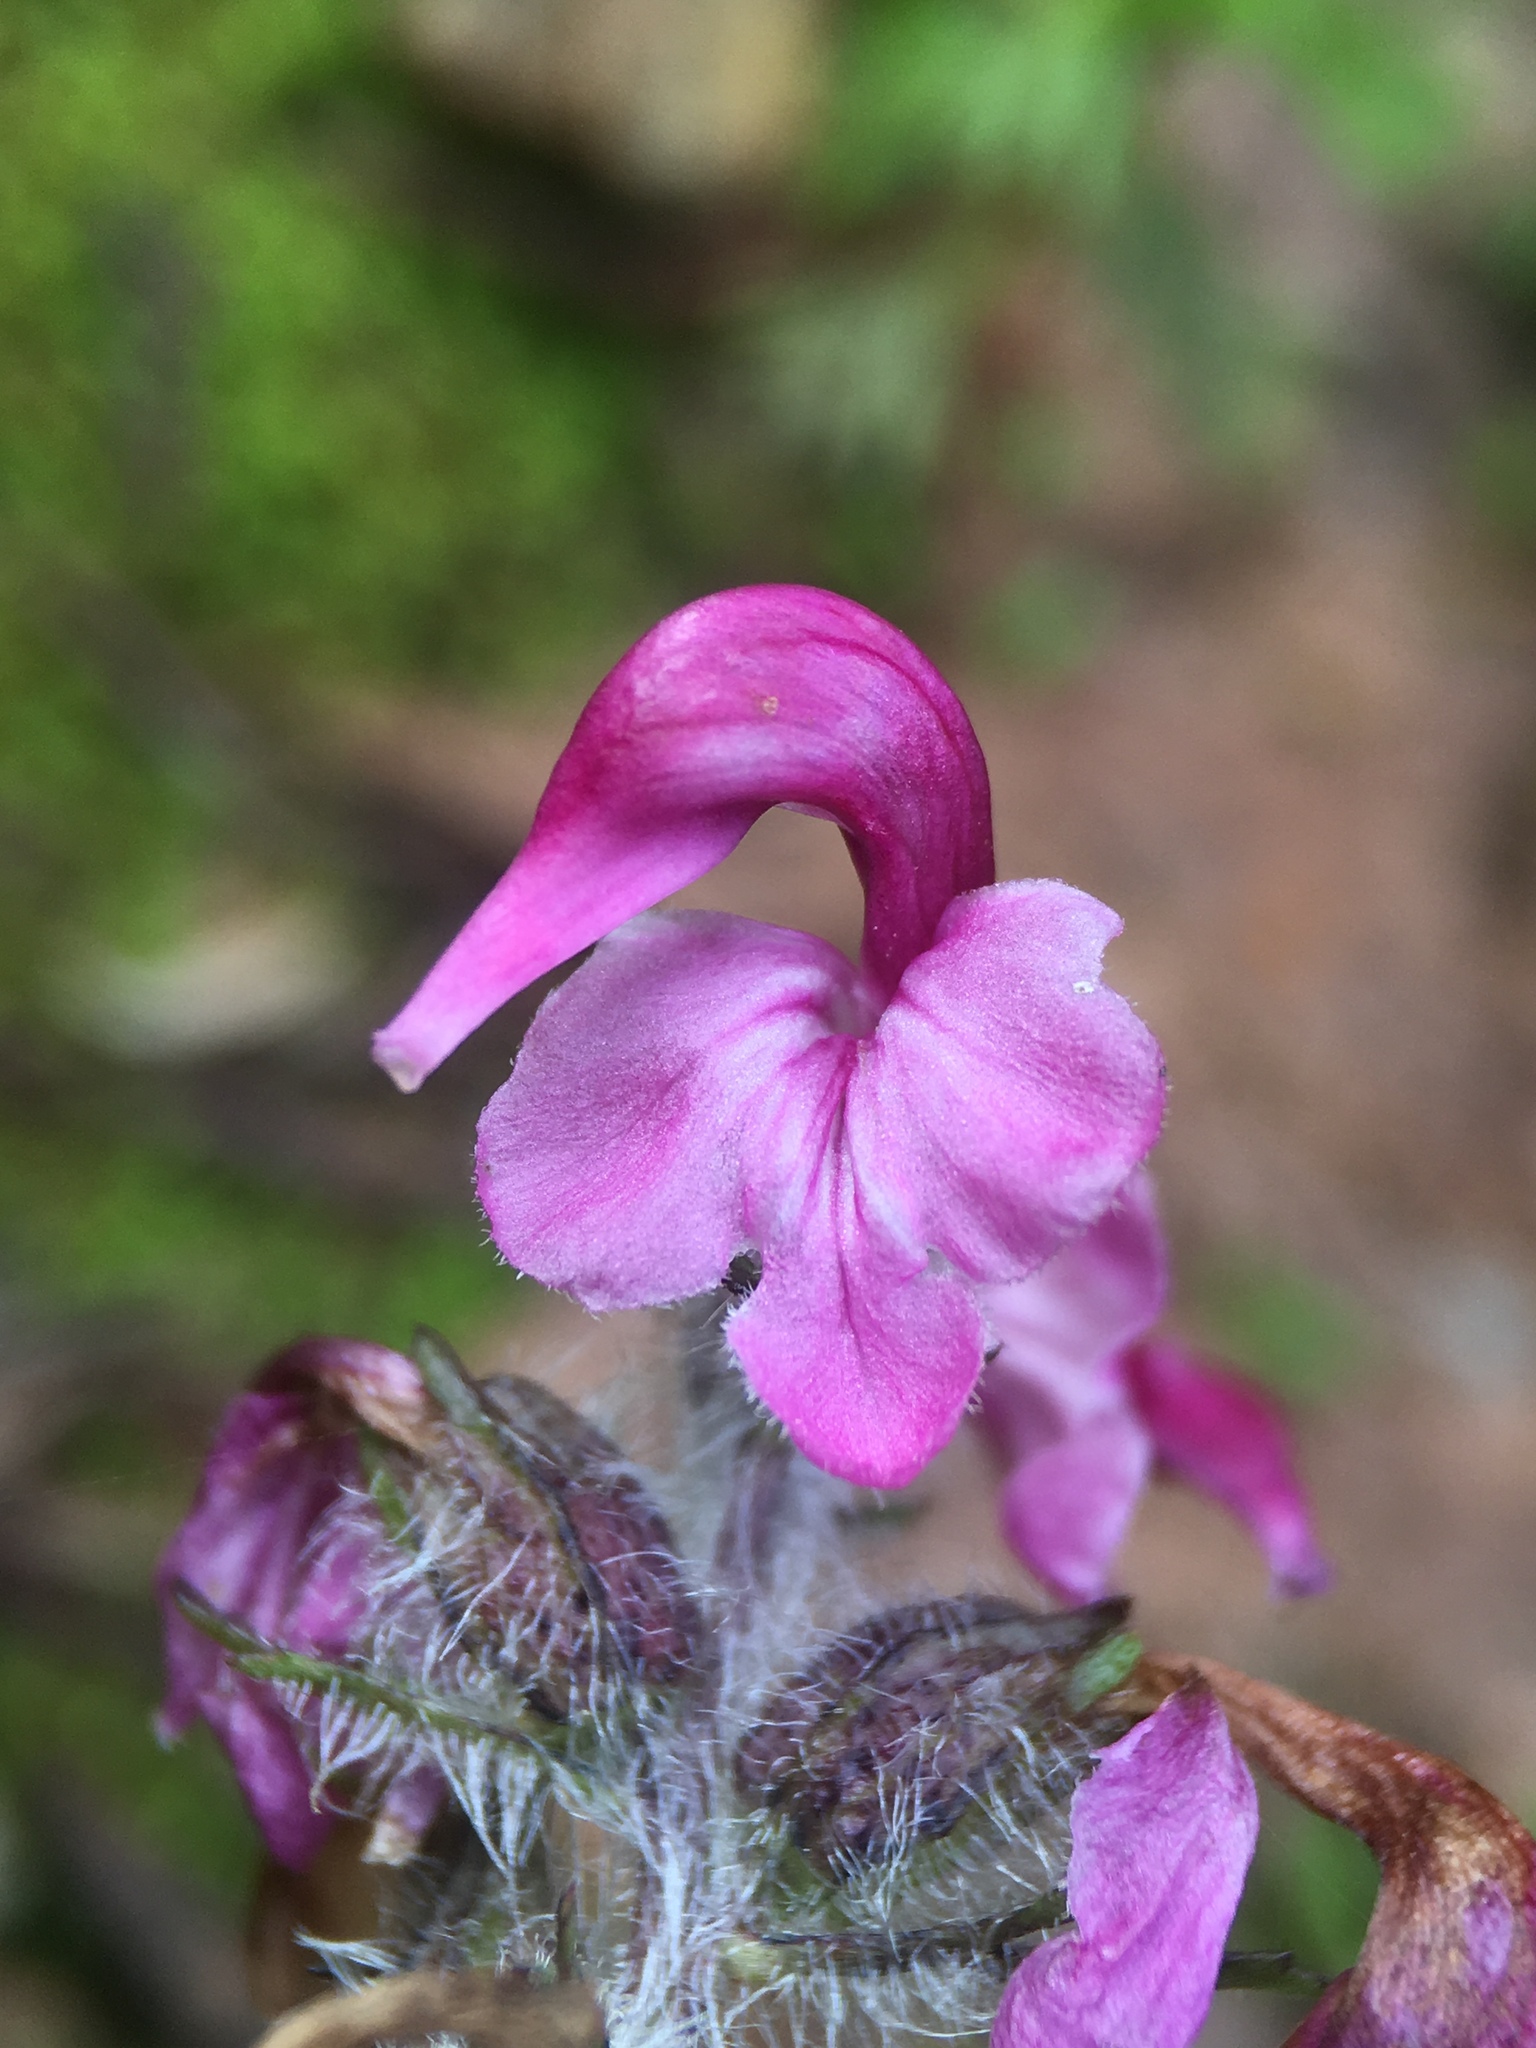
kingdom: Plantae
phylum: Tracheophyta
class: Magnoliopsida
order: Lamiales
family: Orobanchaceae
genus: Pedicularis
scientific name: Pedicularis ornithorhynchos
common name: Bird's-beak lousewort
